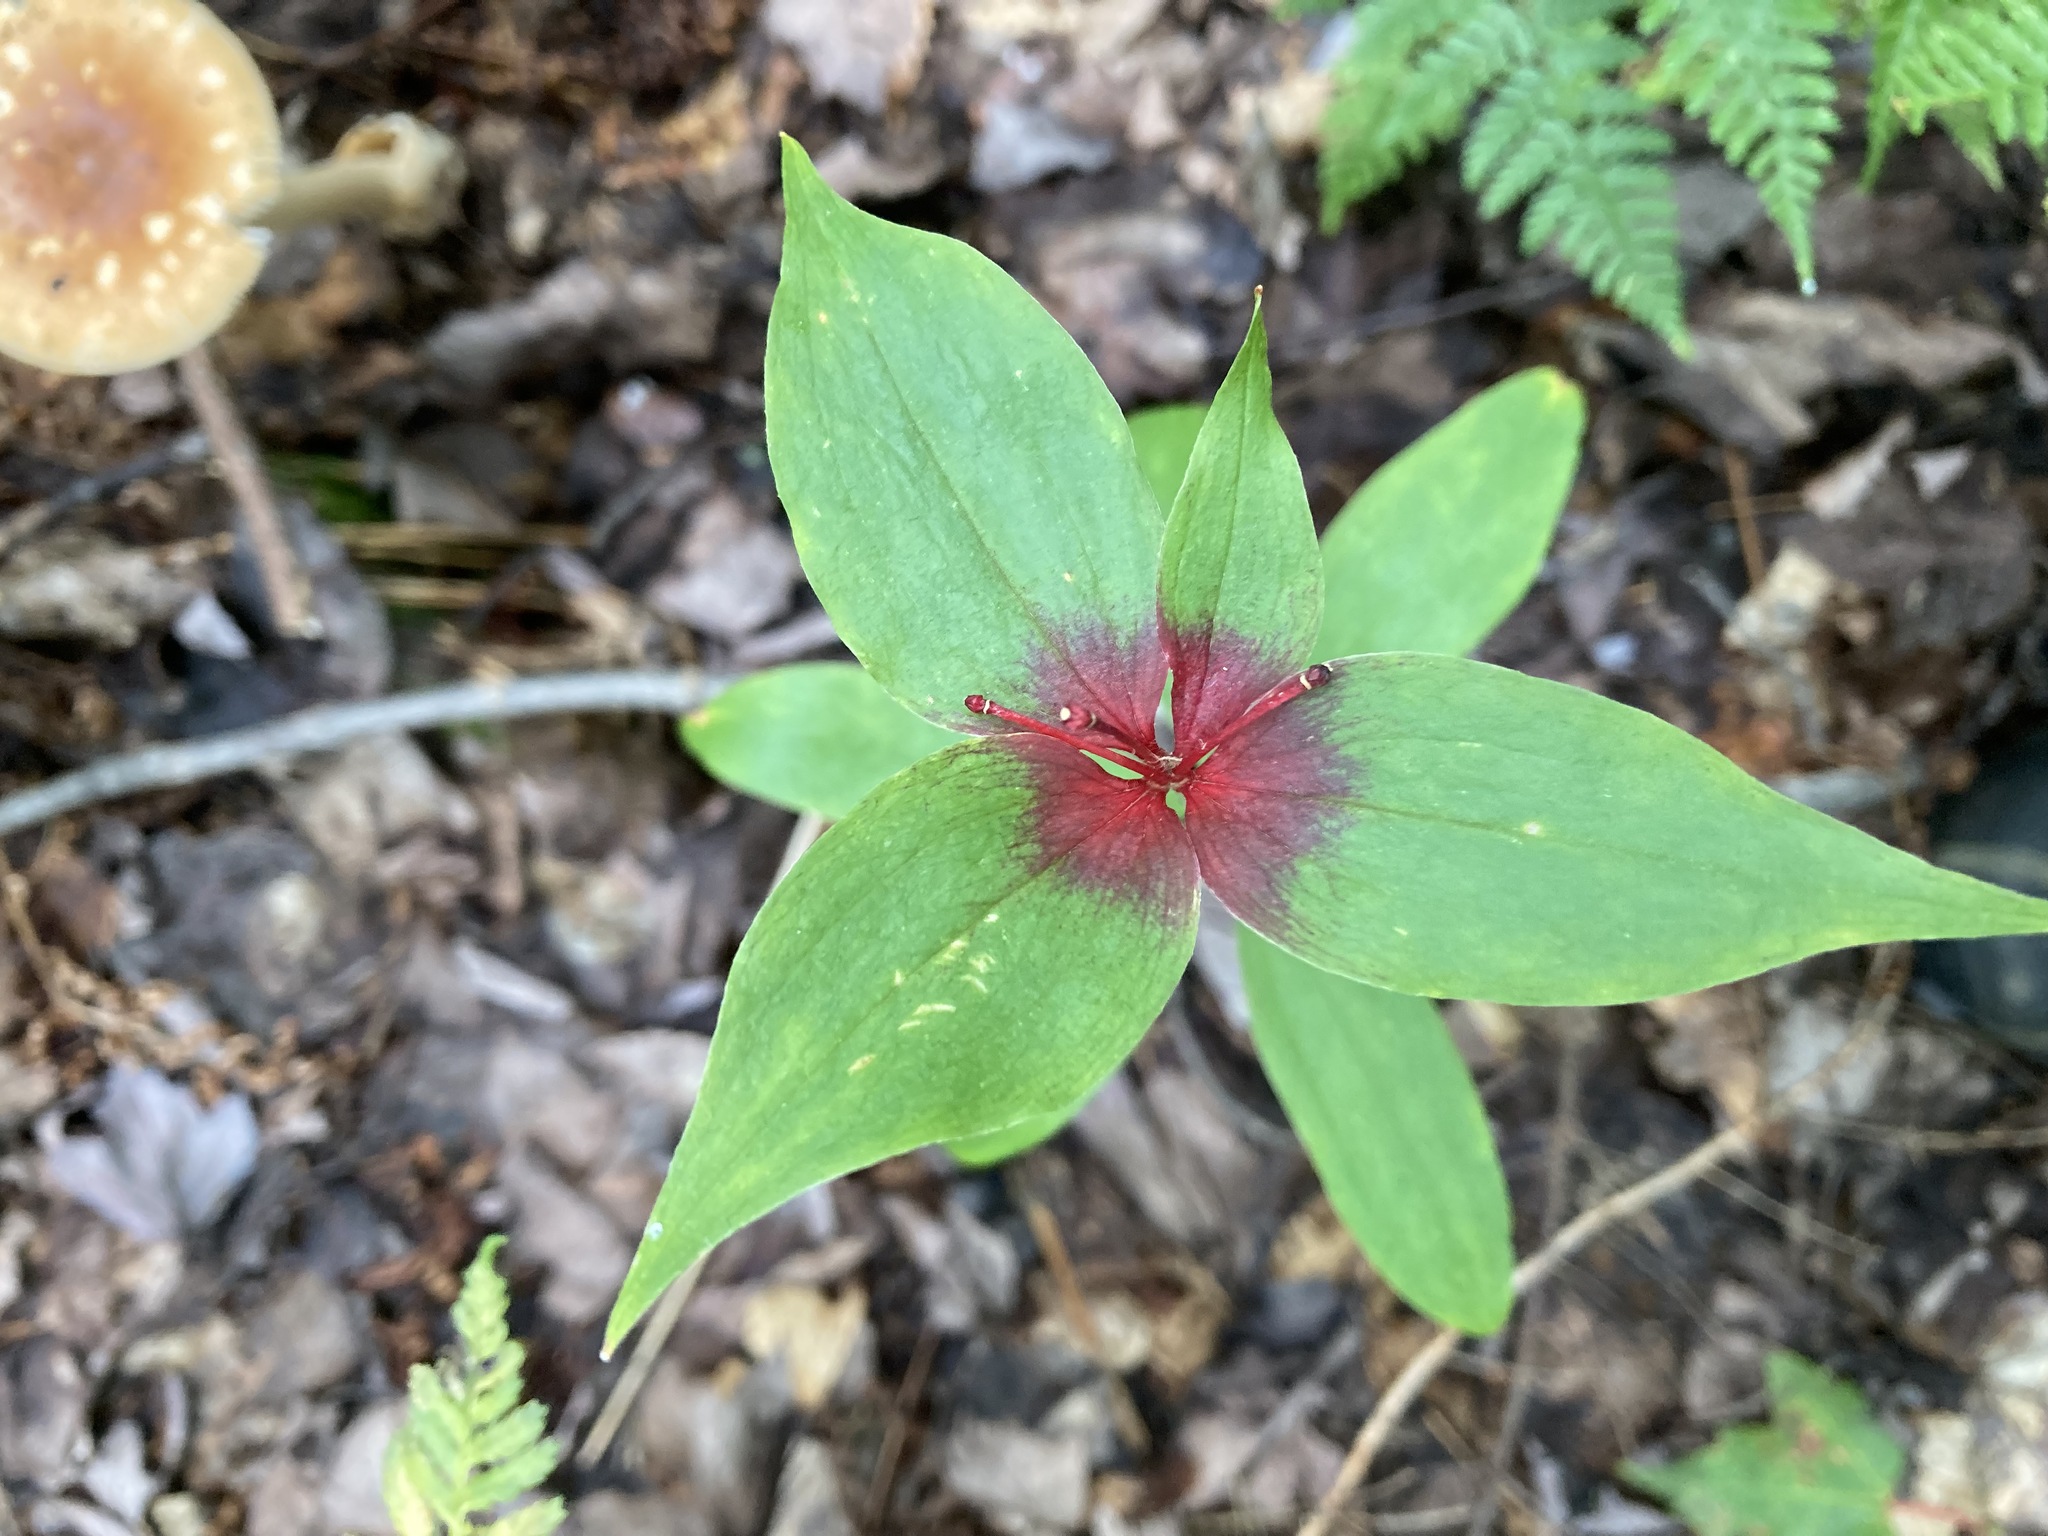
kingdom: Plantae
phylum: Tracheophyta
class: Liliopsida
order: Liliales
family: Liliaceae
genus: Medeola
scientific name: Medeola virginiana
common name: Indian cucumber-root
